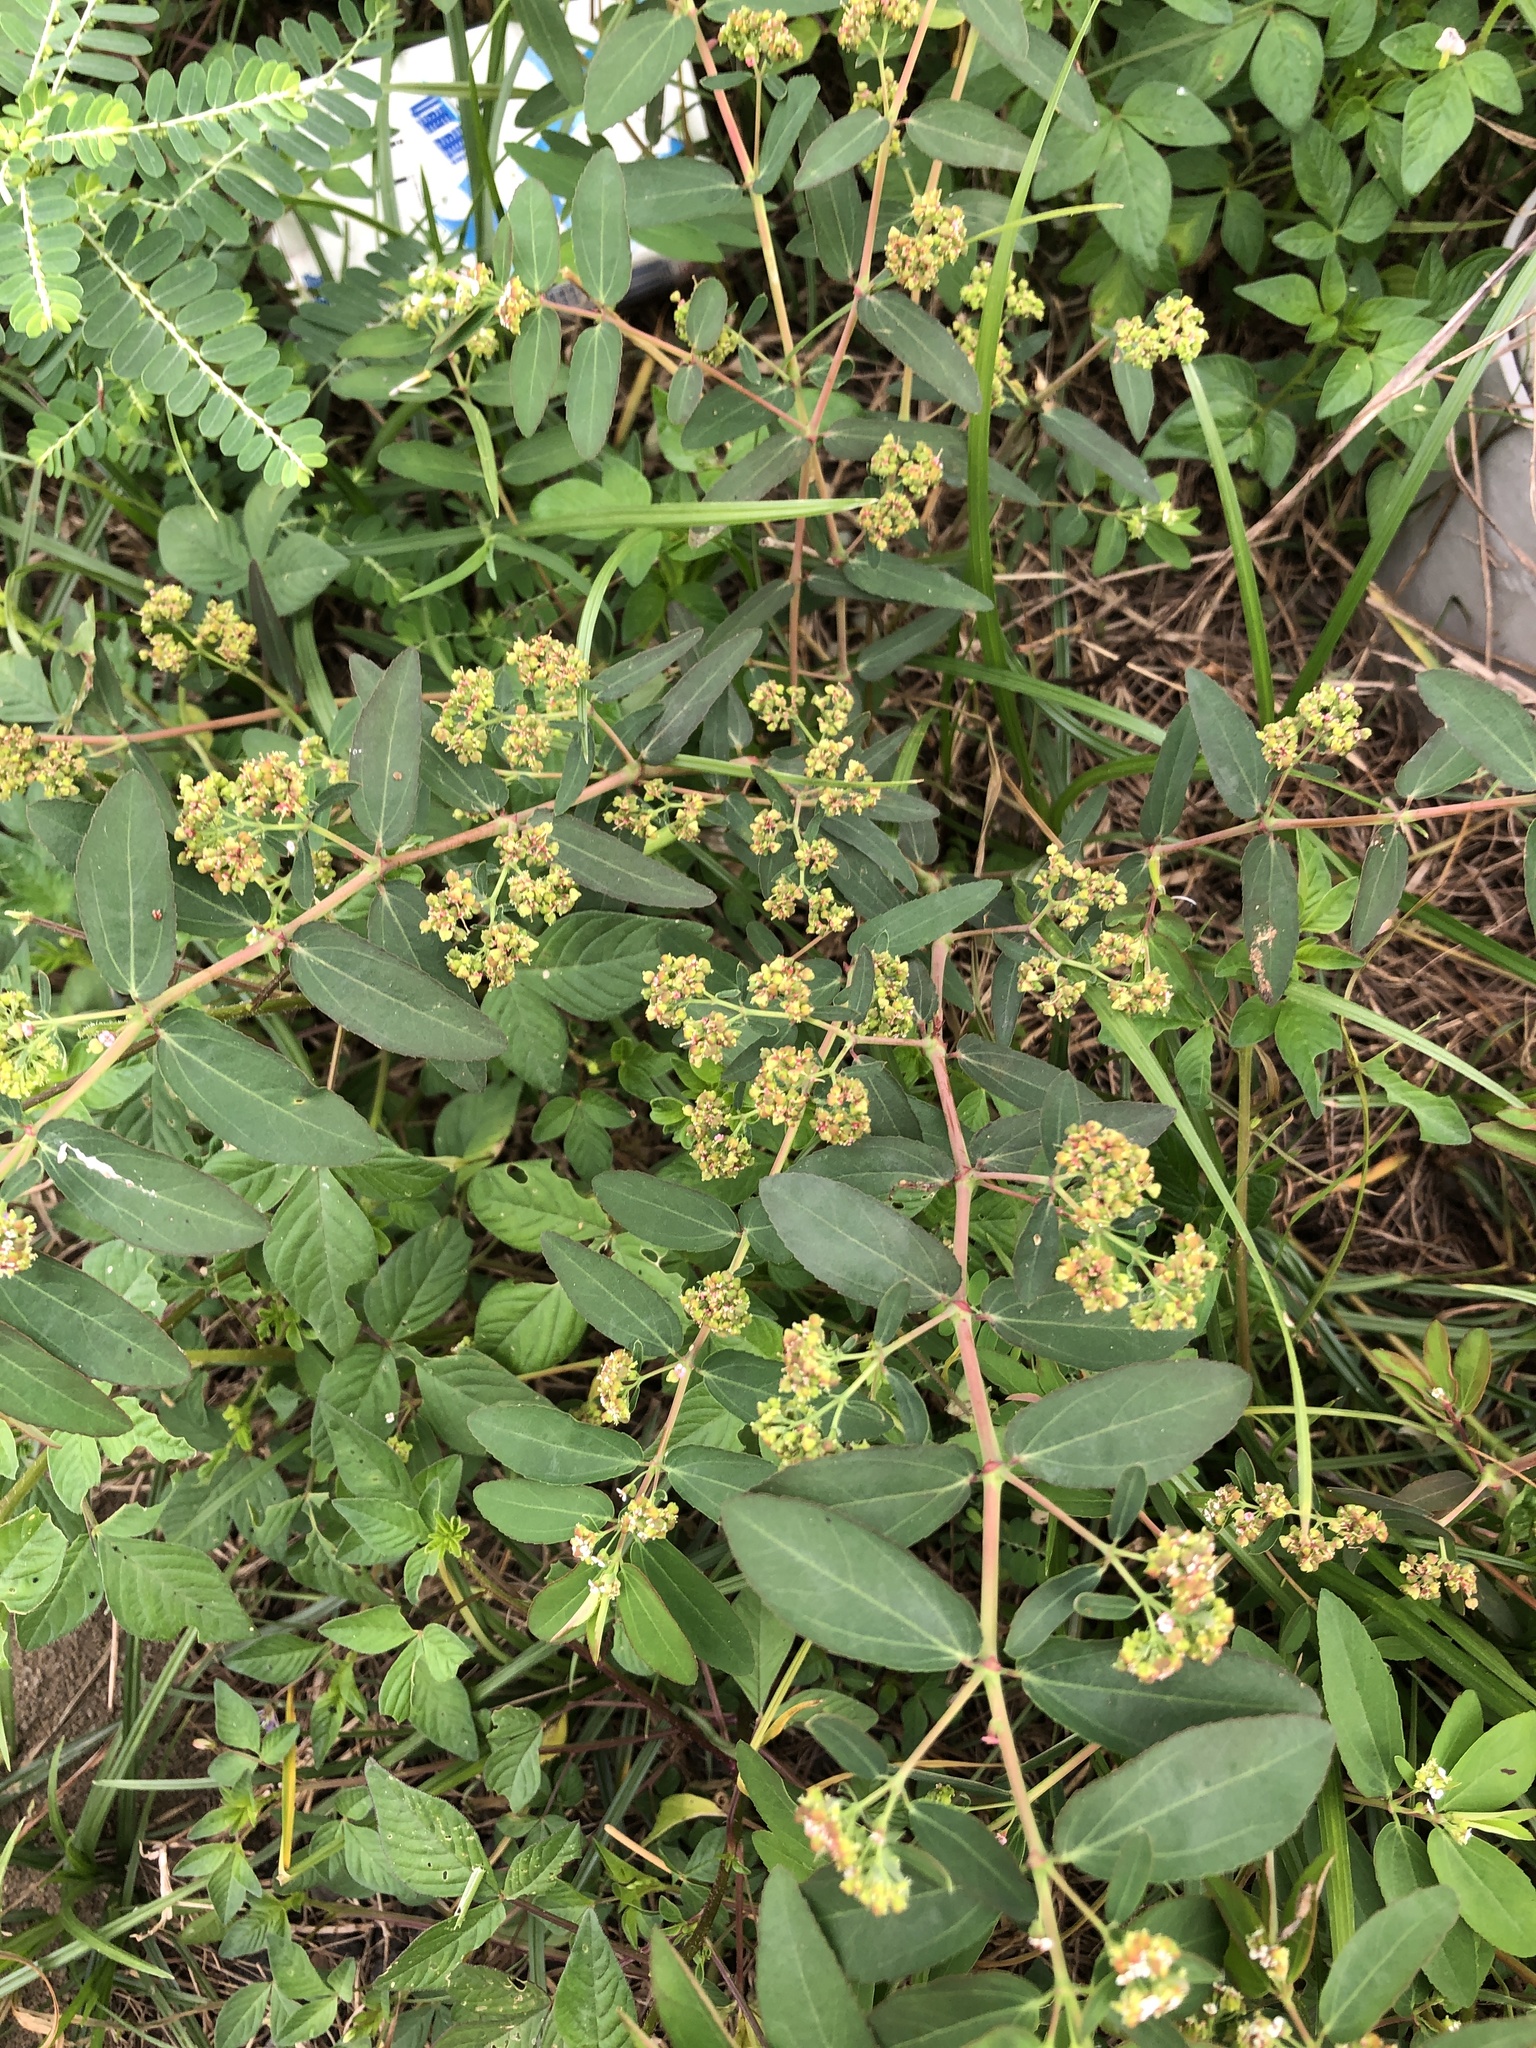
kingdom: Plantae
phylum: Tracheophyta
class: Magnoliopsida
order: Malpighiales
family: Euphorbiaceae
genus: Euphorbia
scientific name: Euphorbia hypericifolia
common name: Graceful sandmat
